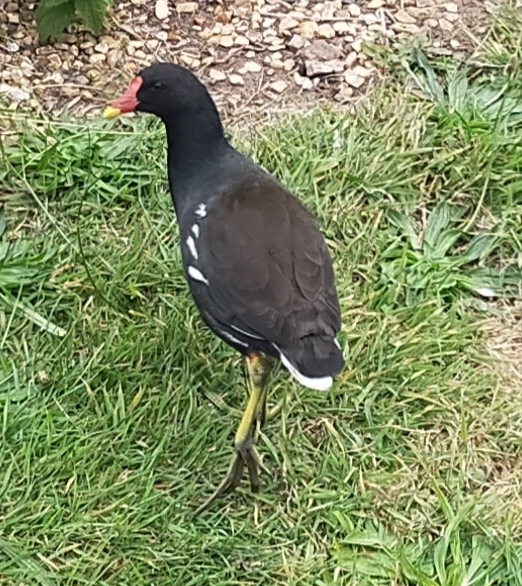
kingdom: Animalia
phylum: Chordata
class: Aves
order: Gruiformes
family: Rallidae
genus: Gallinula
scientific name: Gallinula chloropus
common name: Common moorhen
